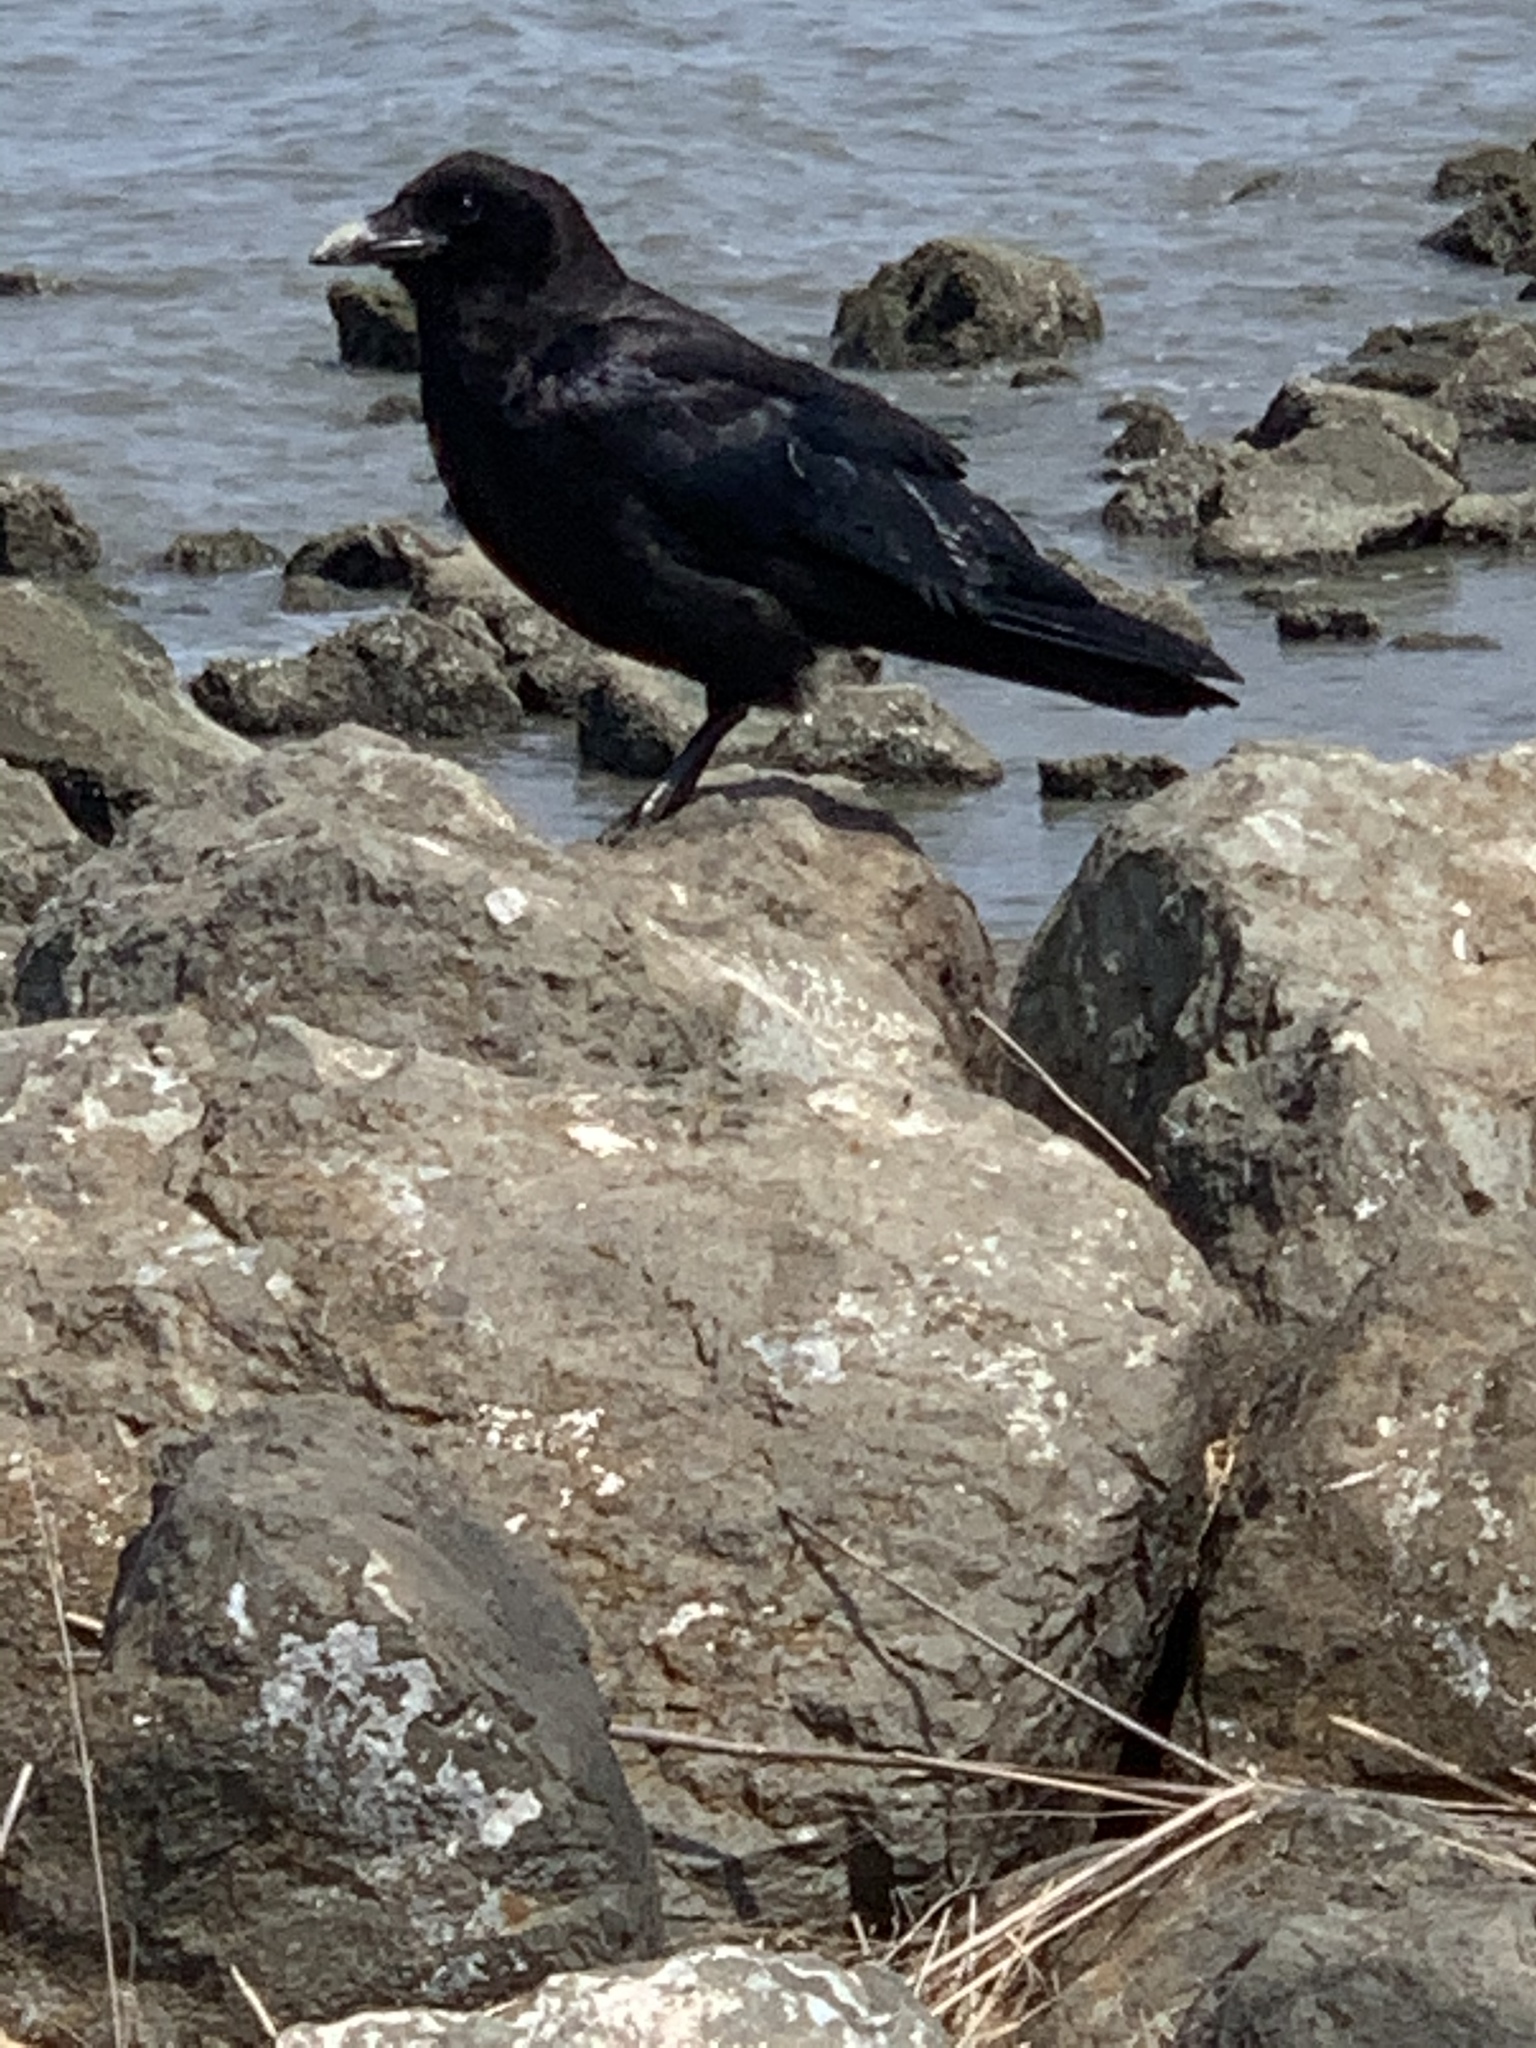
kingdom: Animalia
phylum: Chordata
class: Aves
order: Passeriformes
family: Corvidae
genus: Corvus
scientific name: Corvus brachyrhynchos
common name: American crow
